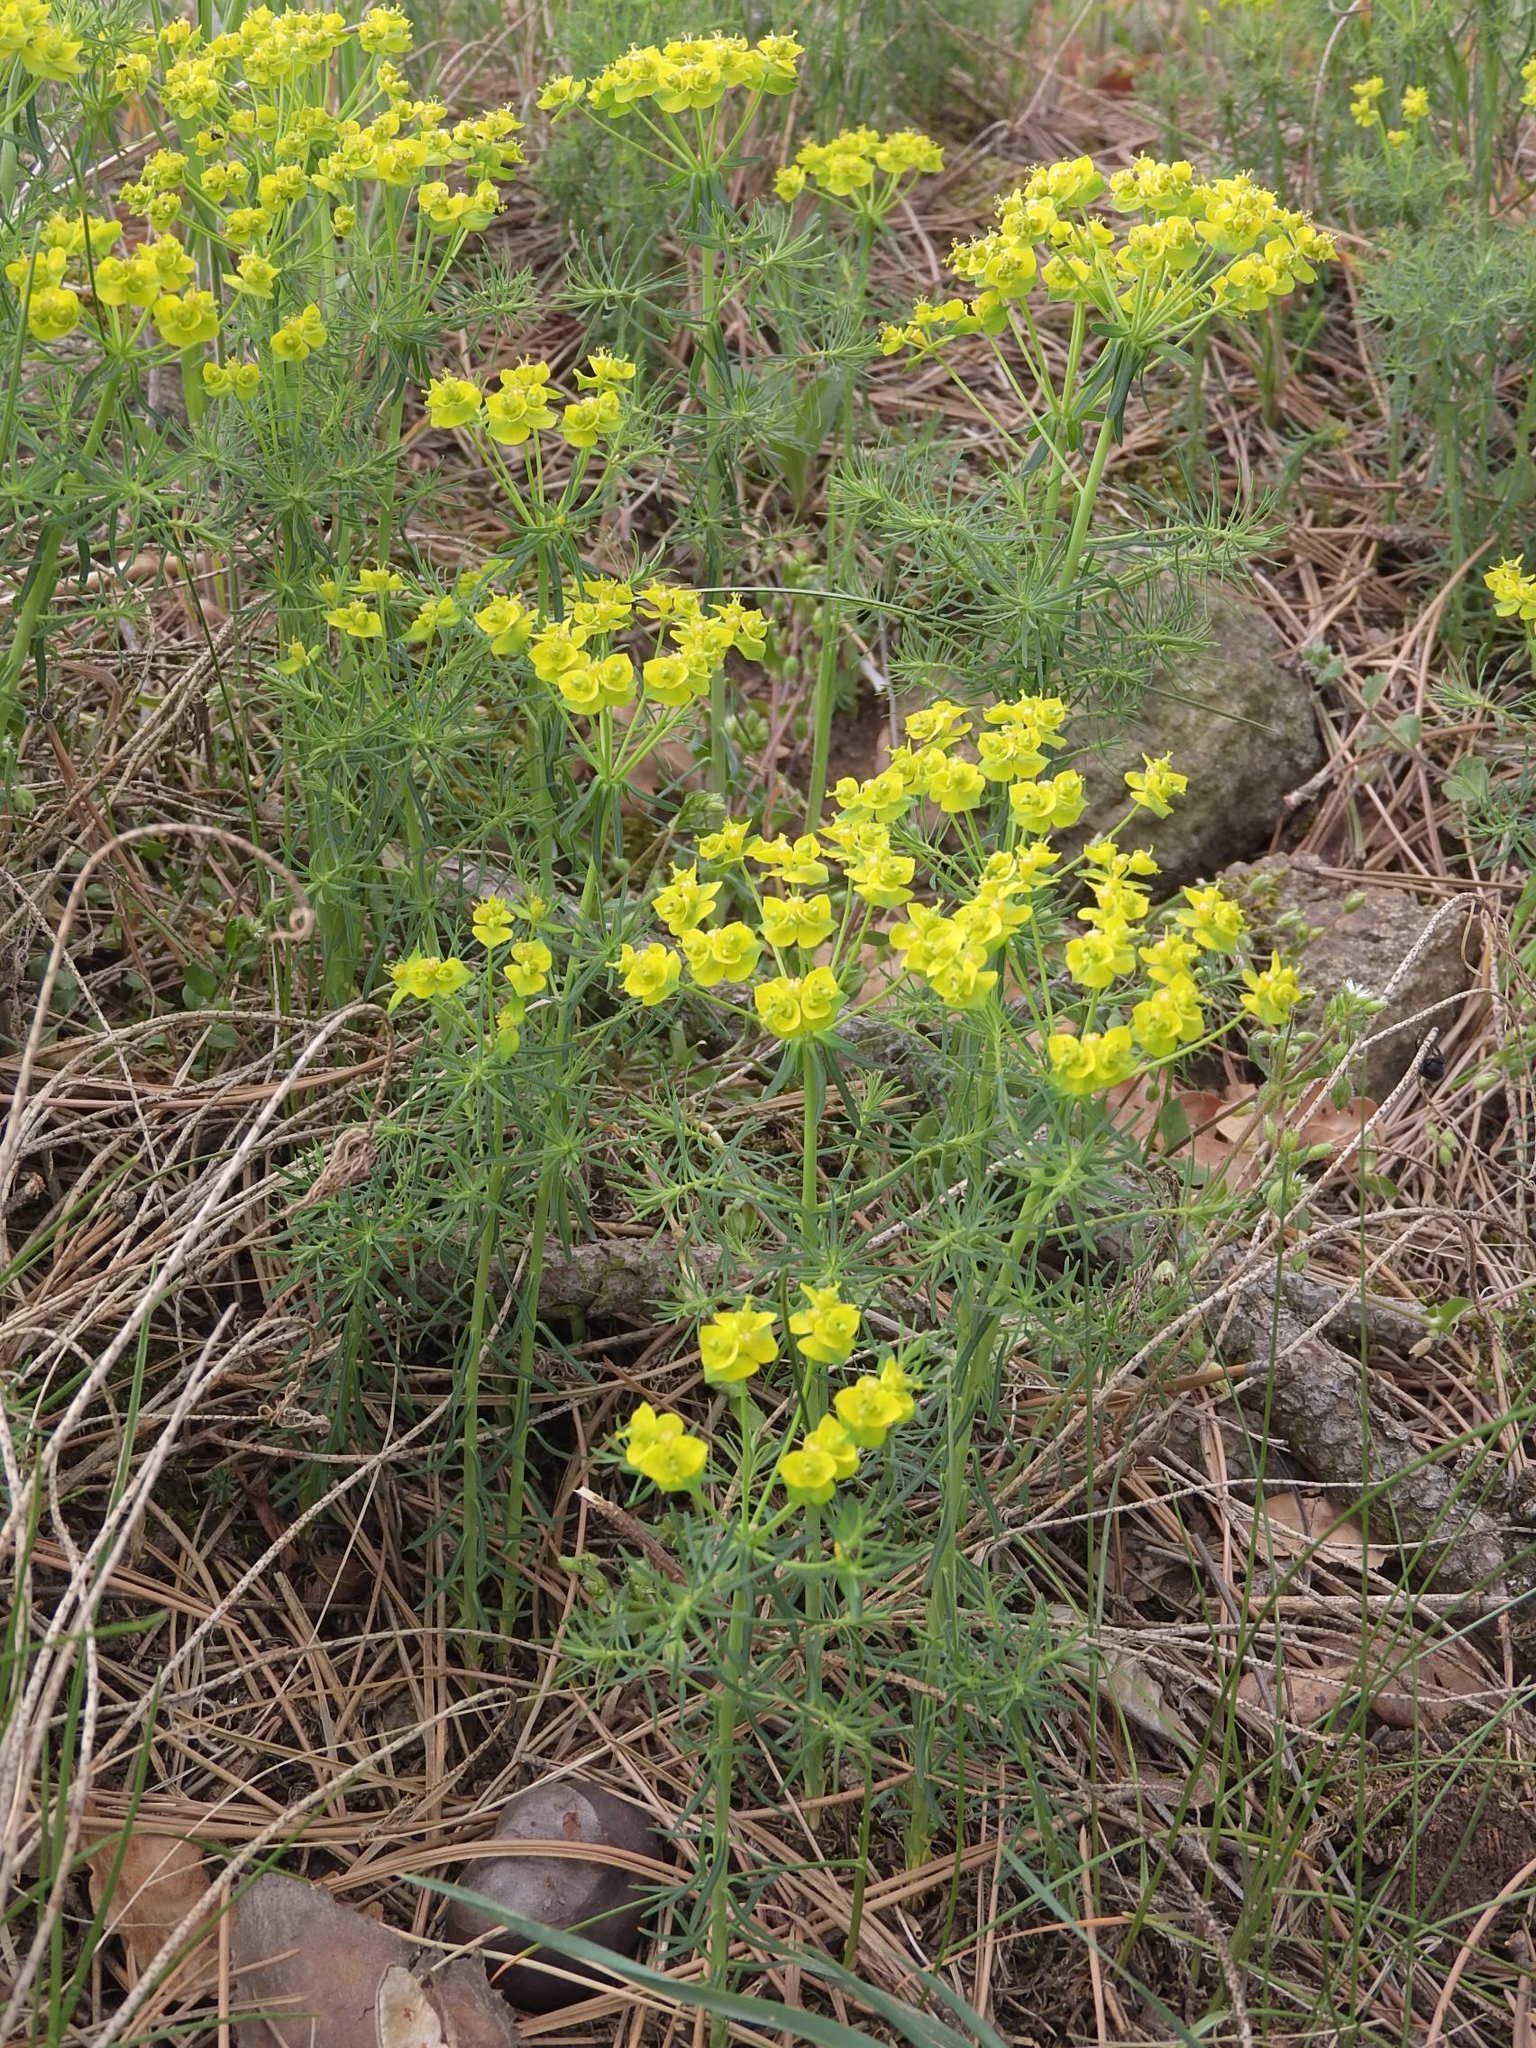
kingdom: Plantae
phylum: Tracheophyta
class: Magnoliopsida
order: Malpighiales
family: Euphorbiaceae
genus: Euphorbia
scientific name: Euphorbia cyparissias
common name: Cypress spurge
